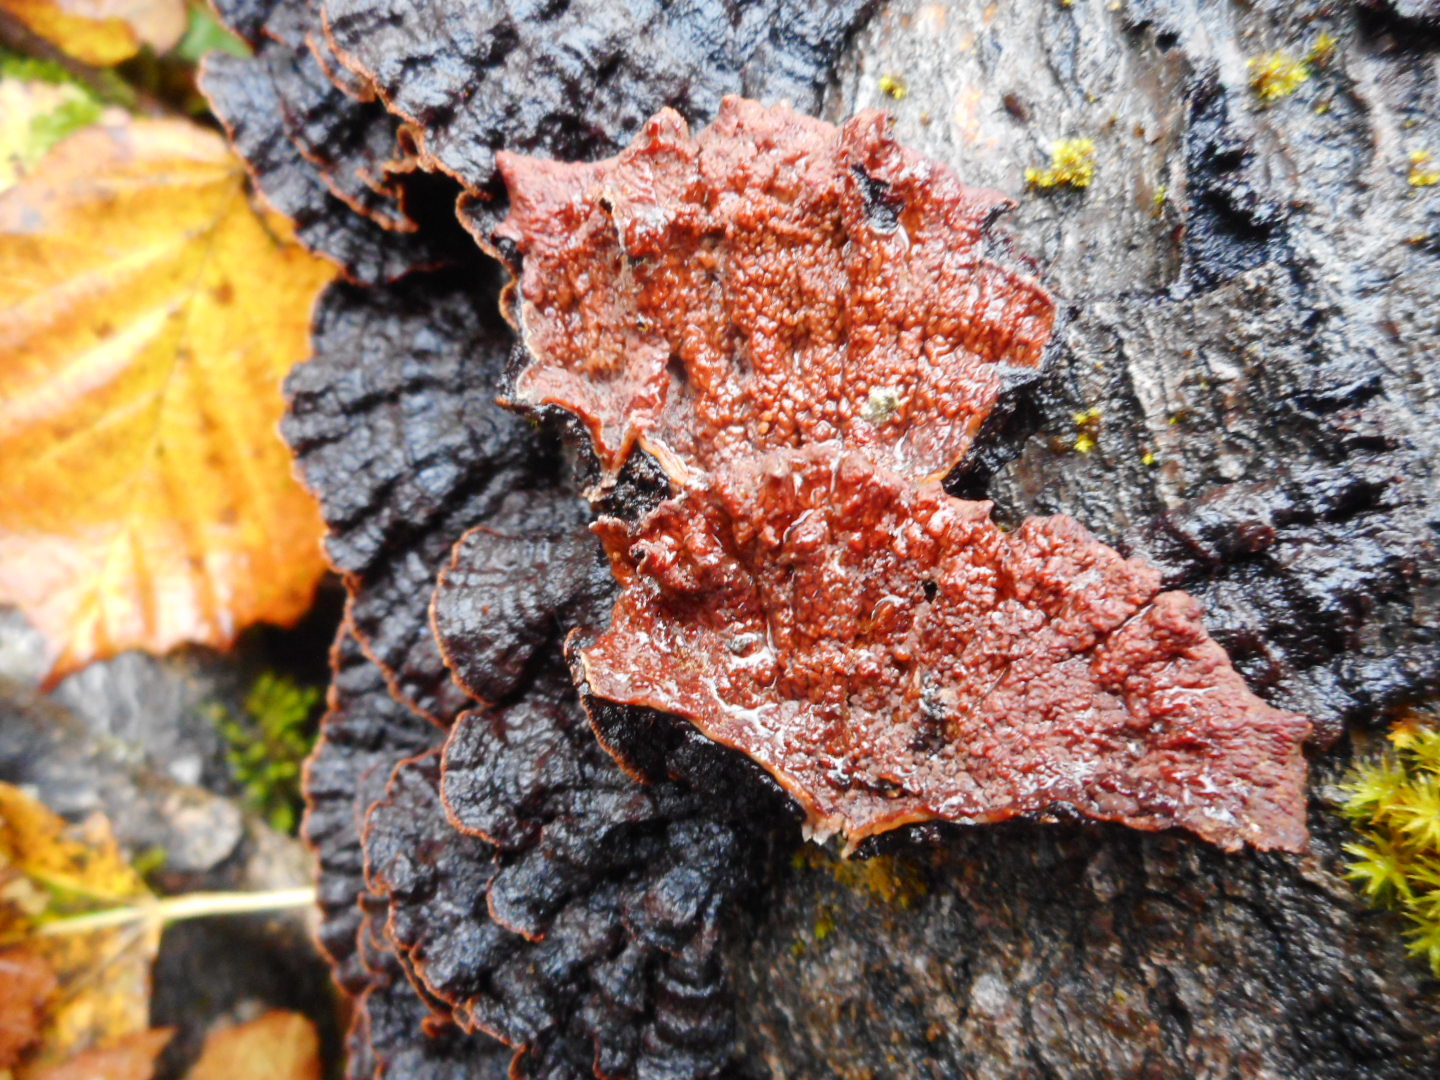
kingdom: Fungi
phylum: Basidiomycota
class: Agaricomycetes
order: Corticiales
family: Punctulariaceae
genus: Punctularia
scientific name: Punctularia strigosozonata
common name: White-rot fungus
